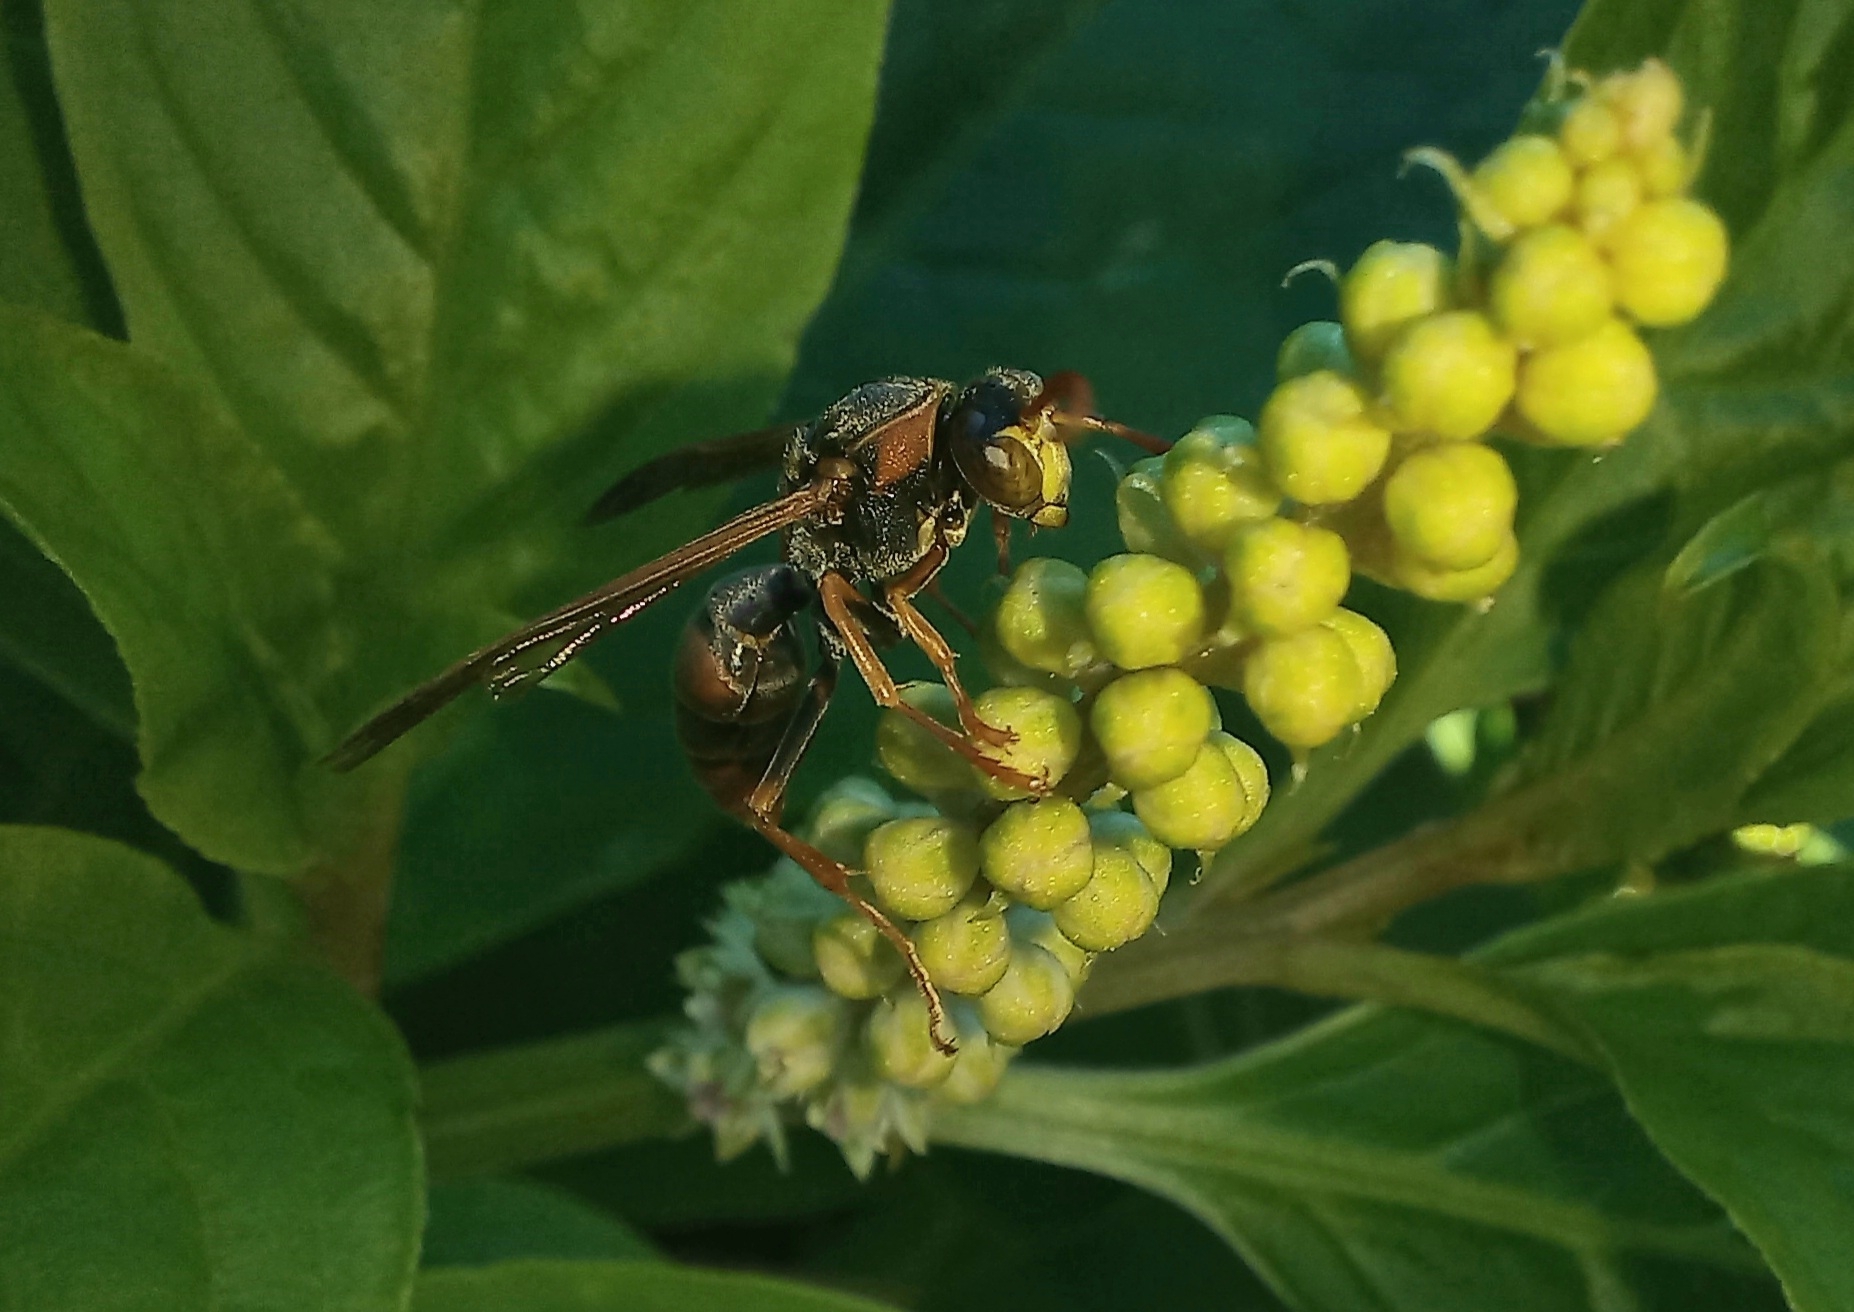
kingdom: Animalia
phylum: Arthropoda
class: Insecta
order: Hymenoptera
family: Eumenidae
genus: Polistes
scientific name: Polistes humilis
